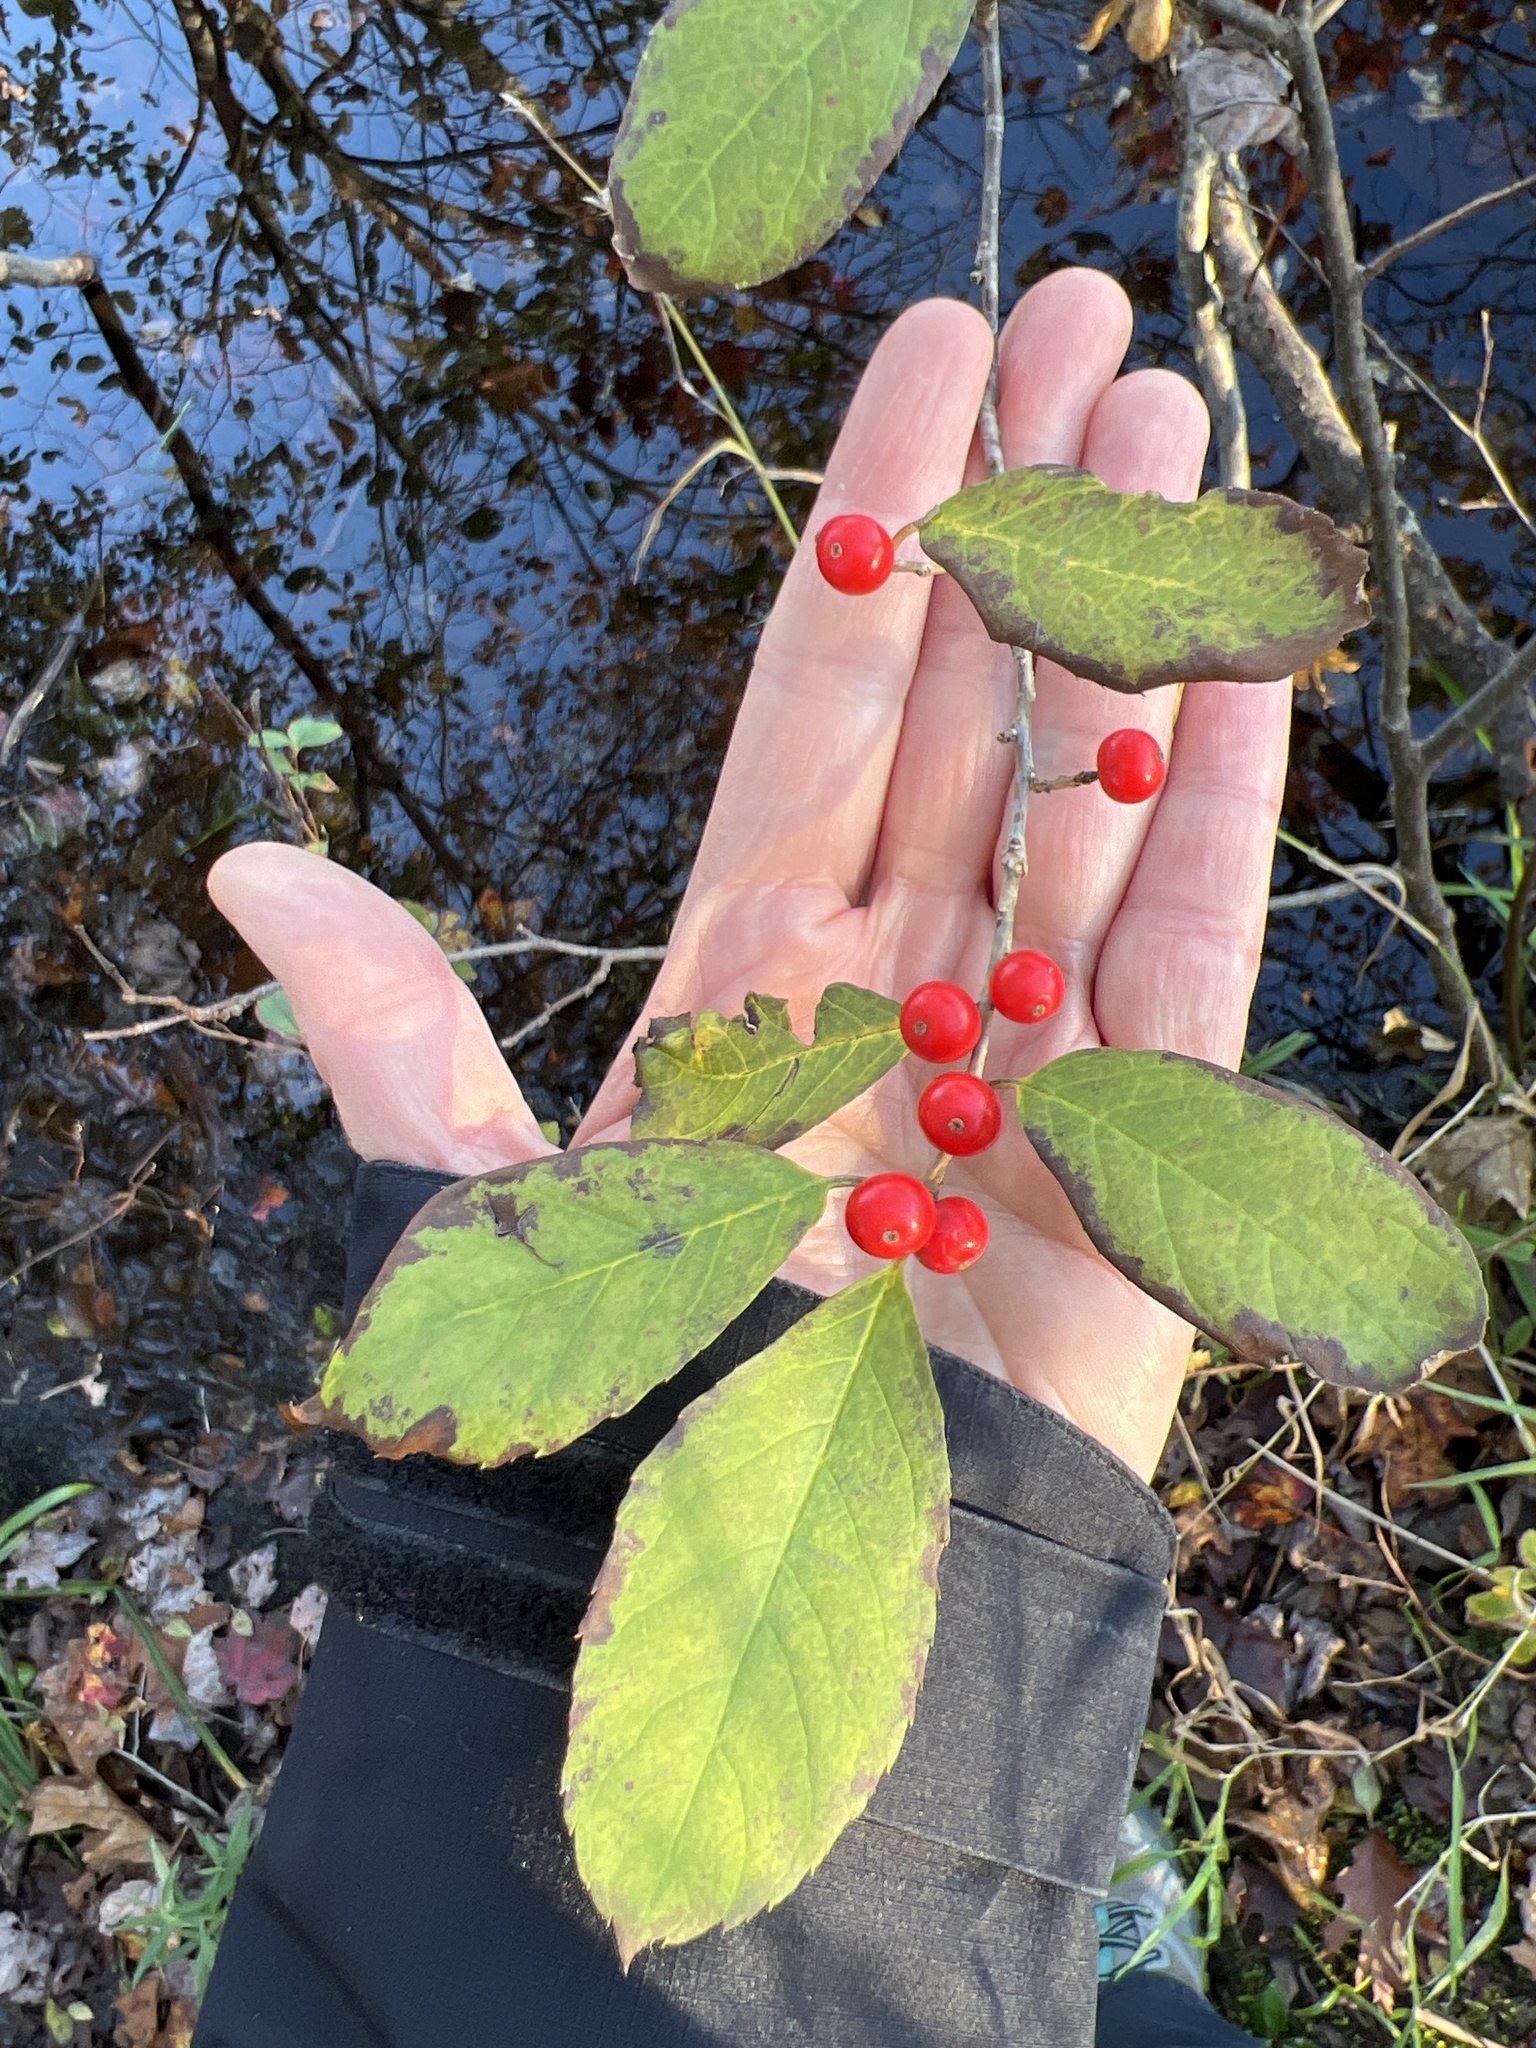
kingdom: Plantae
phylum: Tracheophyta
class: Magnoliopsida
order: Aquifoliales
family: Aquifoliaceae
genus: Ilex
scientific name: Ilex verticillata
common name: Virginia winterberry
